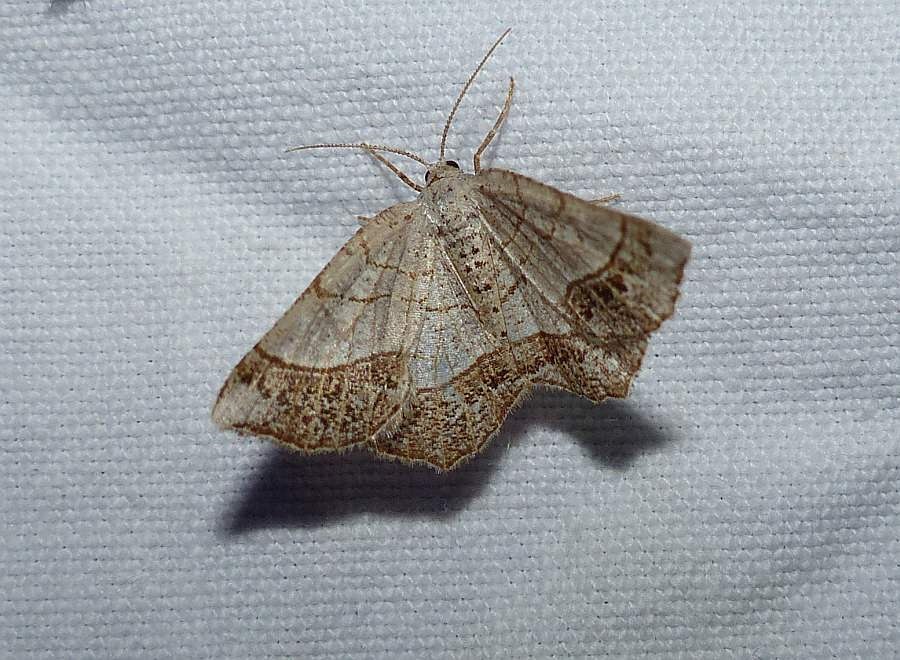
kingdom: Animalia
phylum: Arthropoda
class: Insecta
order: Lepidoptera
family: Geometridae
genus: Eumacaria
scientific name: Eumacaria madopata
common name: Brown-bordered geometer
